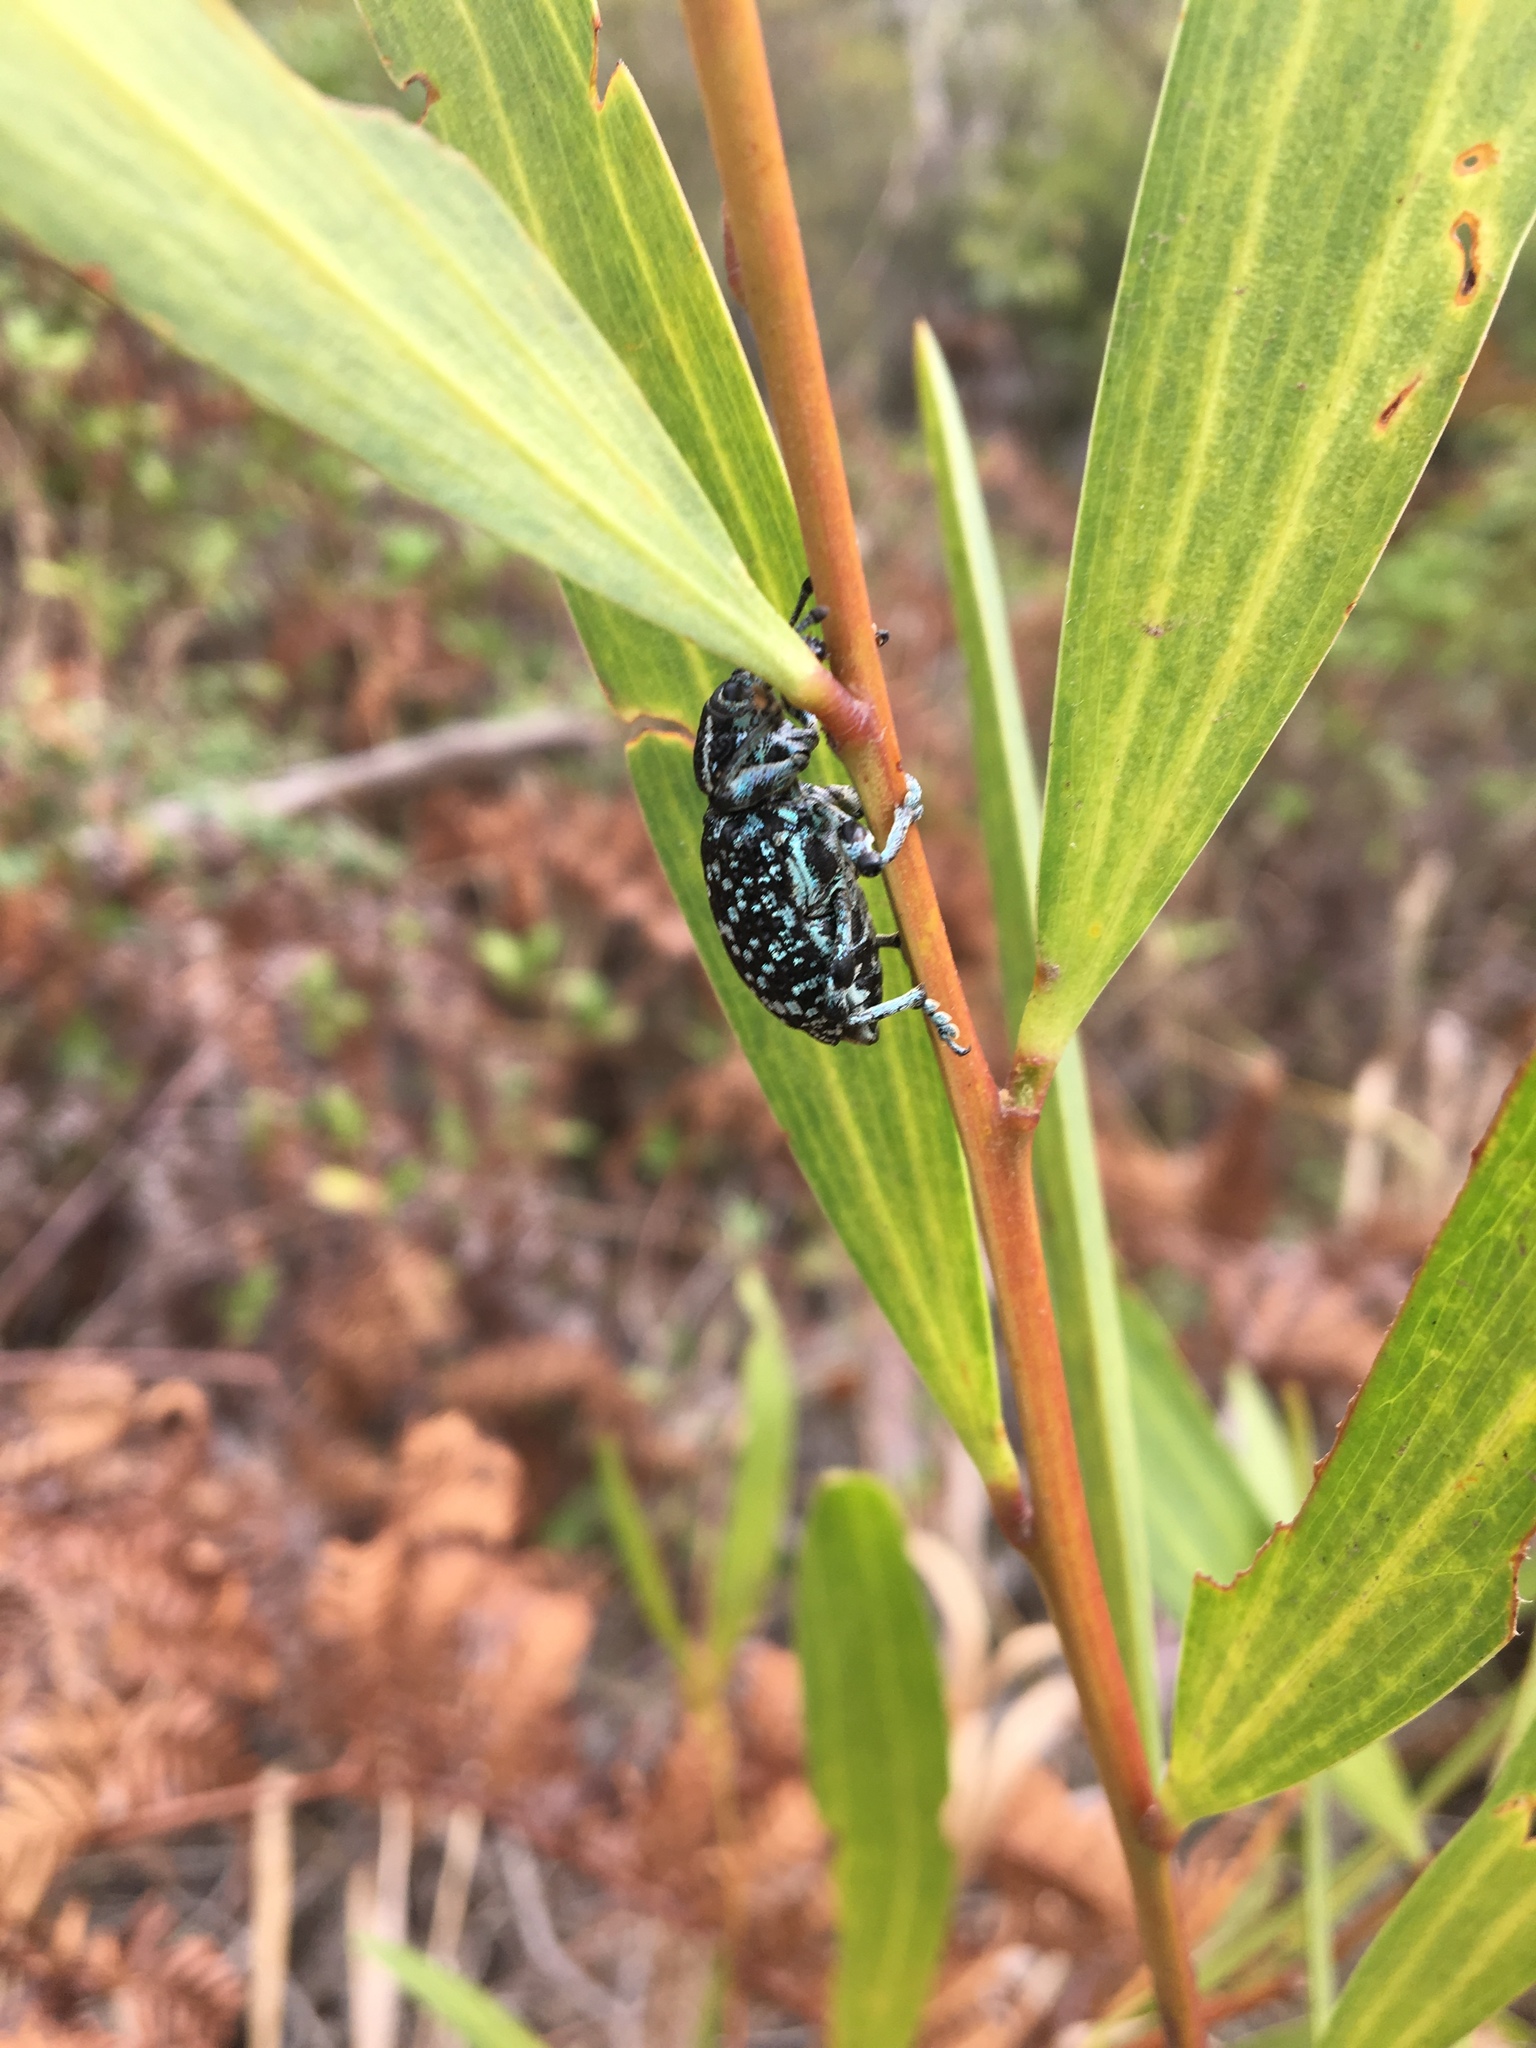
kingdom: Animalia
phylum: Arthropoda
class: Insecta
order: Coleoptera
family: Curculionidae
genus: Chrysolopus
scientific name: Chrysolopus spectabilis
